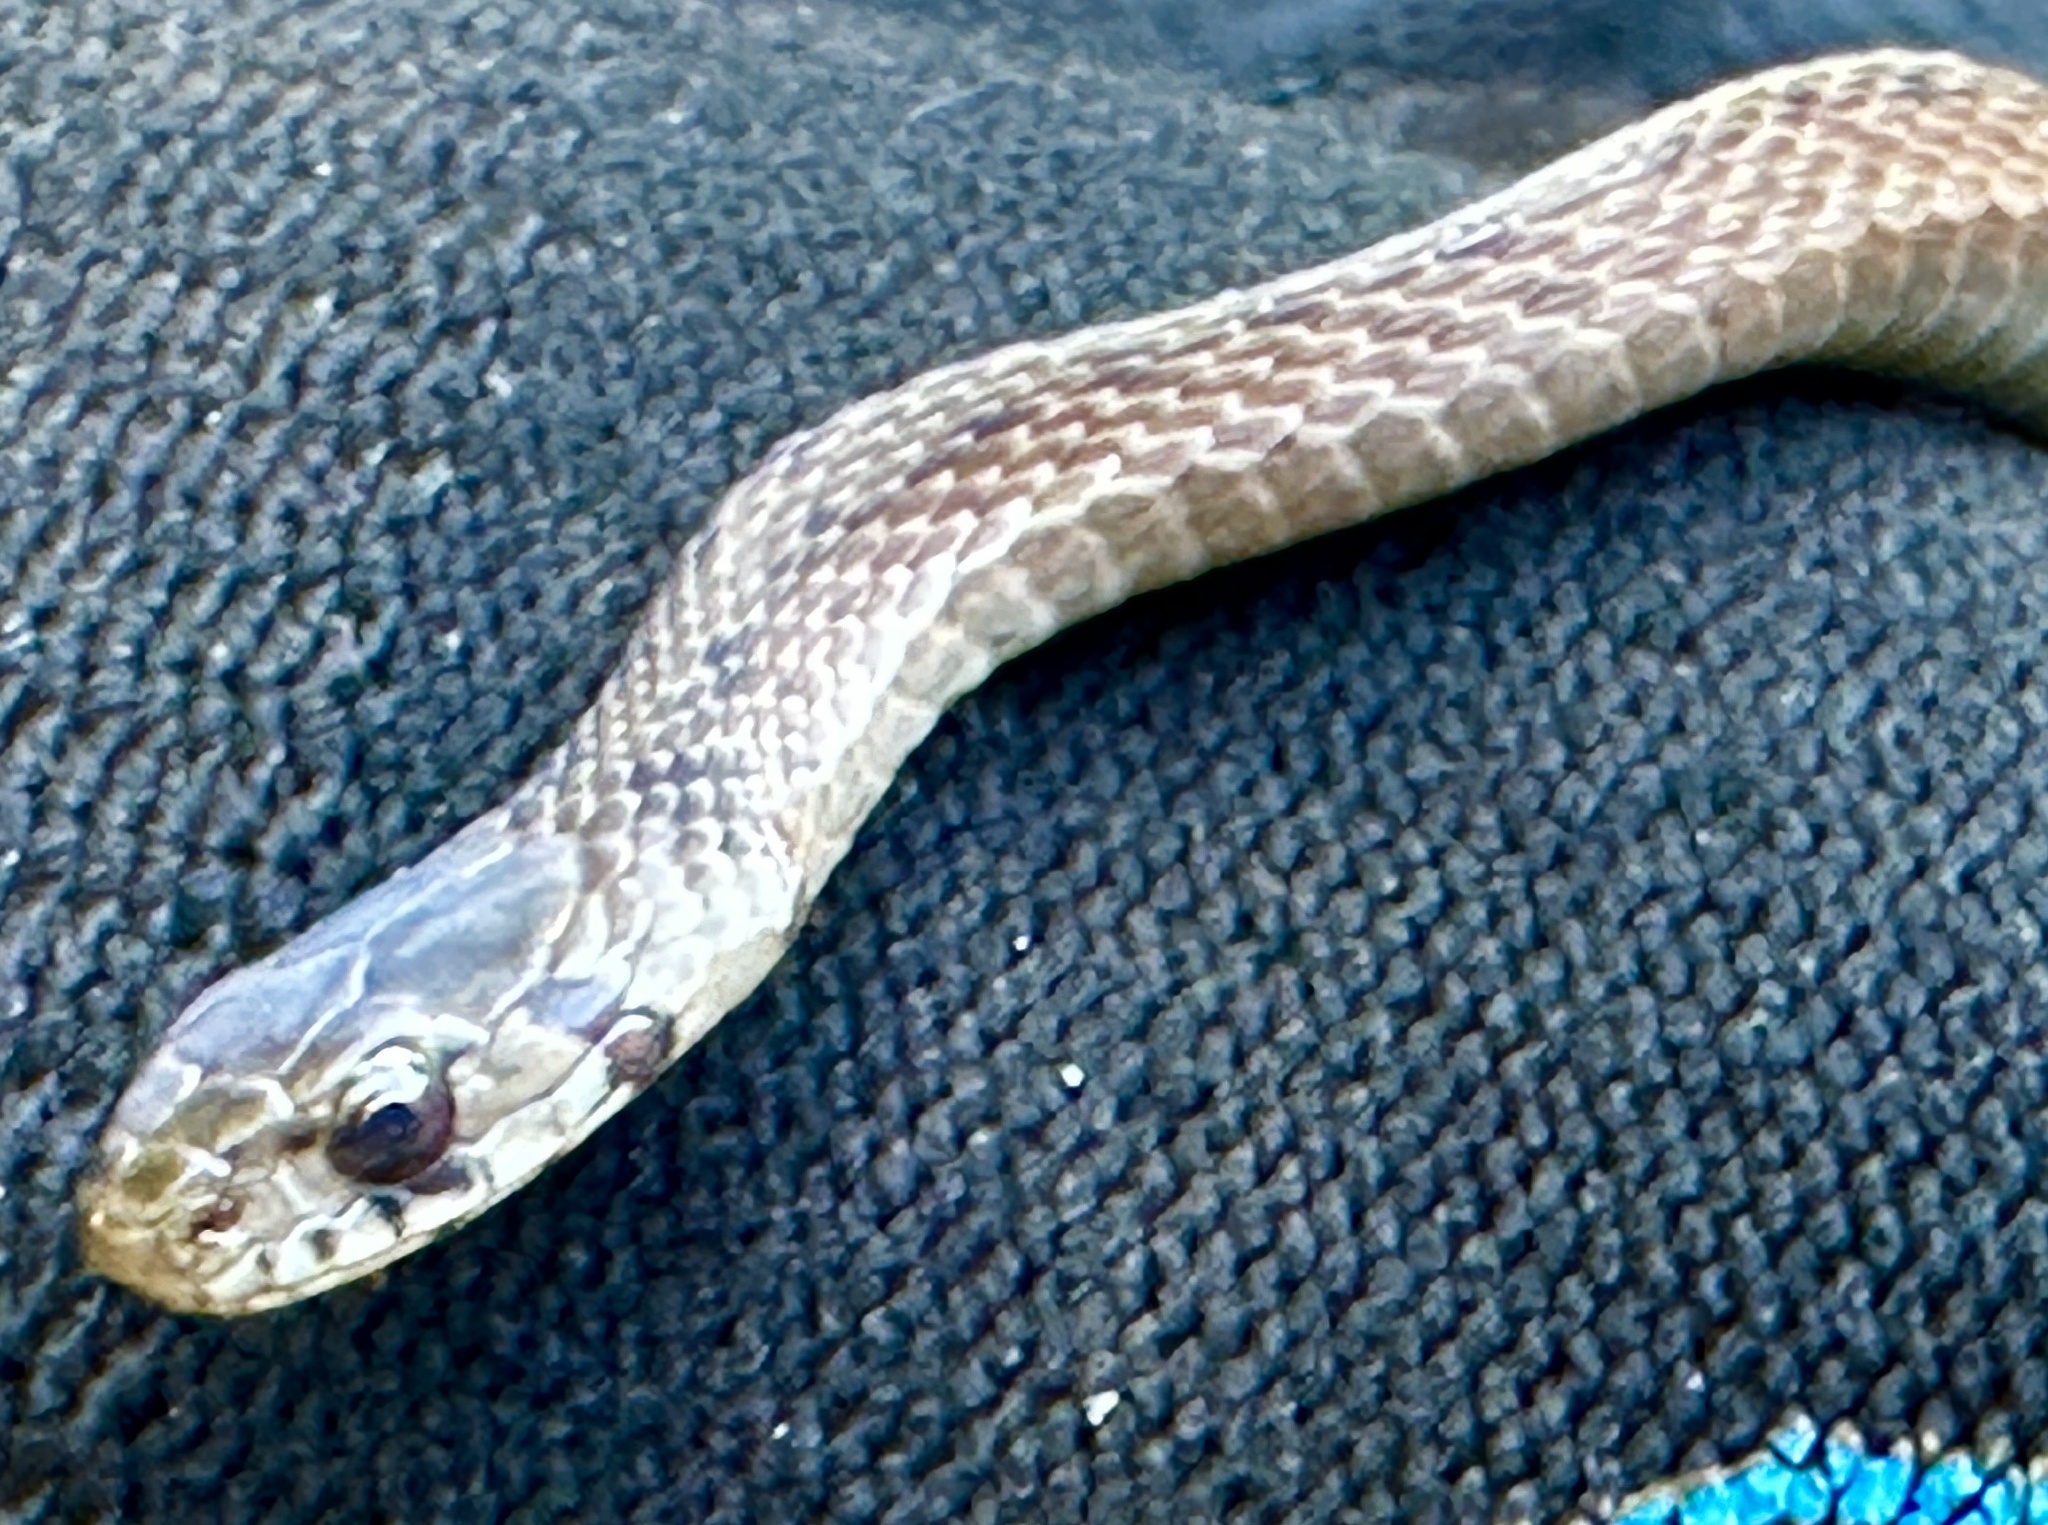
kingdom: Animalia
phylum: Chordata
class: Squamata
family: Colubridae
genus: Storeria
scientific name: Storeria dekayi
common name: (dekay’s) brown snake
